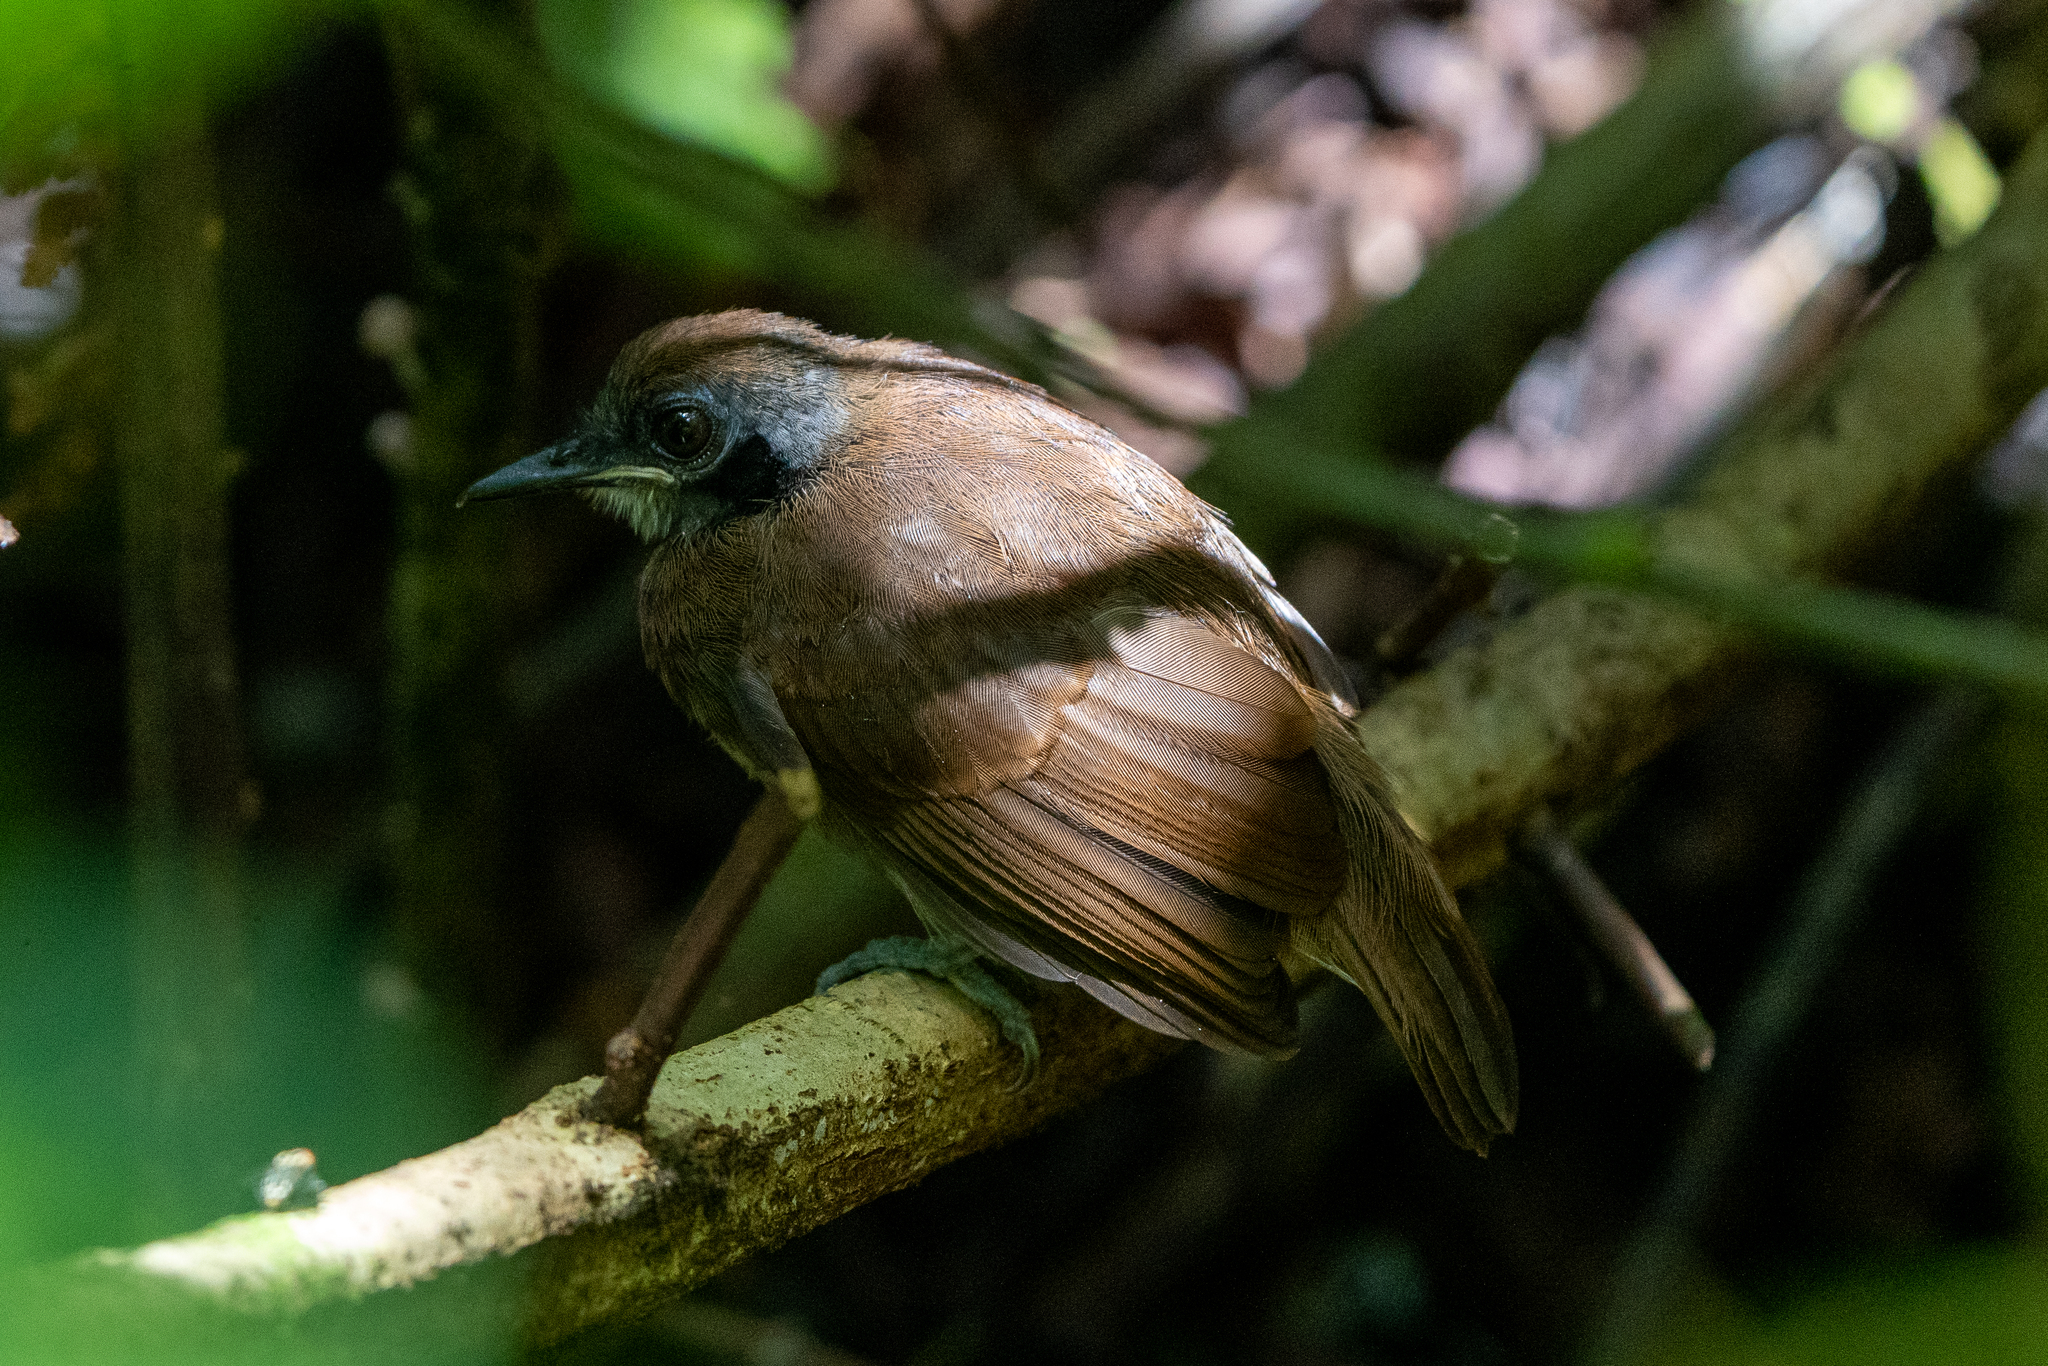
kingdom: Animalia
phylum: Chordata
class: Aves
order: Passeriformes
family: Thamnophilidae
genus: Gymnopithys
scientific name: Gymnopithys leucaspis
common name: White-cheeked antbird
